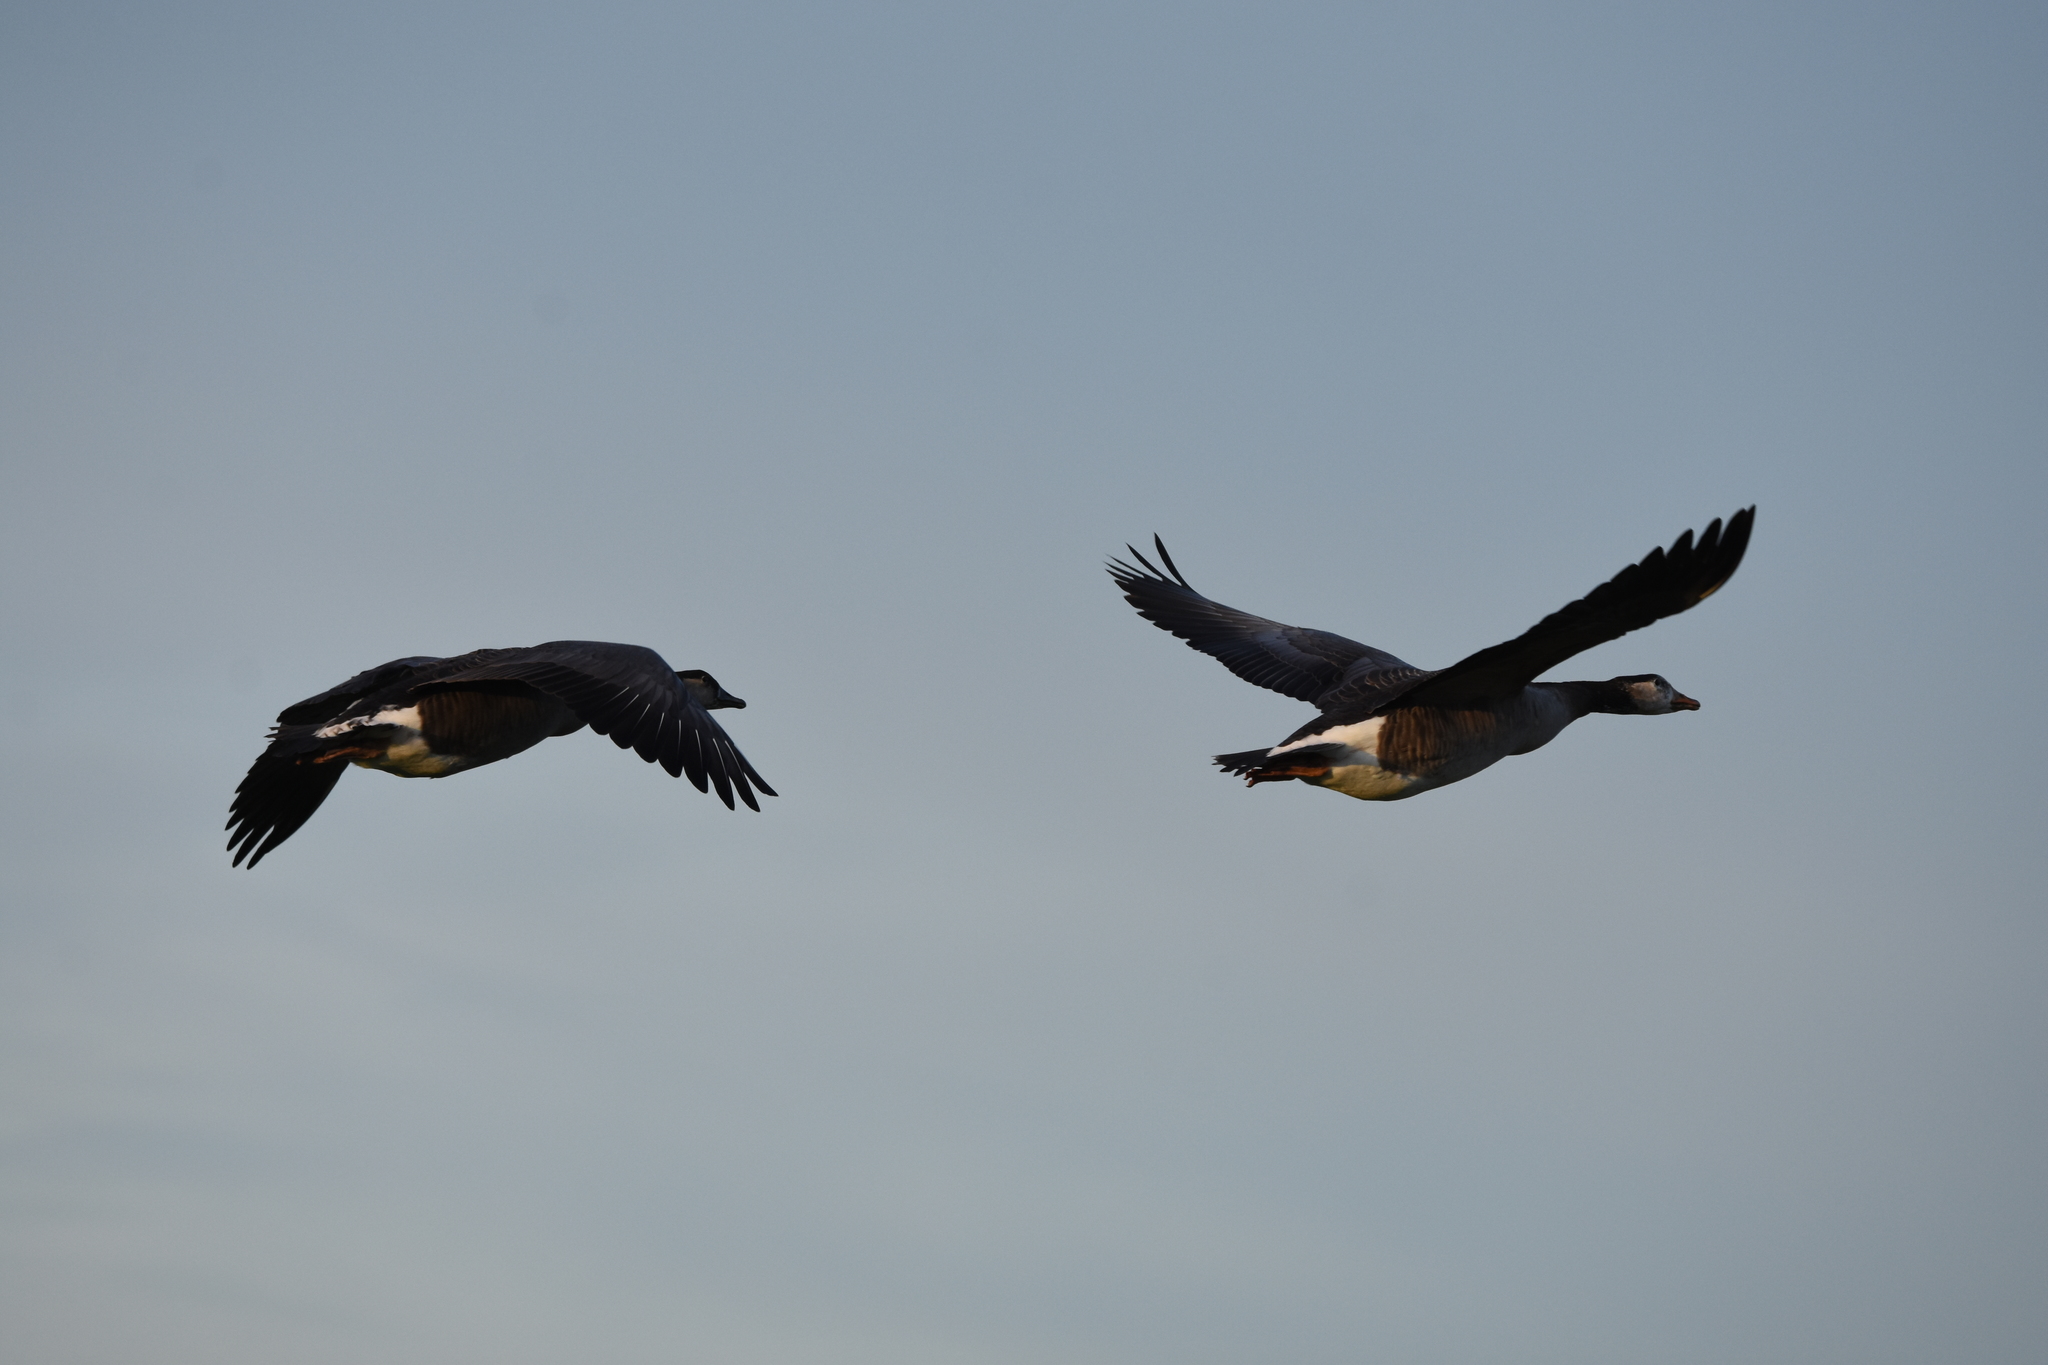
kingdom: Animalia
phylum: Chordata
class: Aves
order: Anseriformes
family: Anatidae
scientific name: Anatidae
